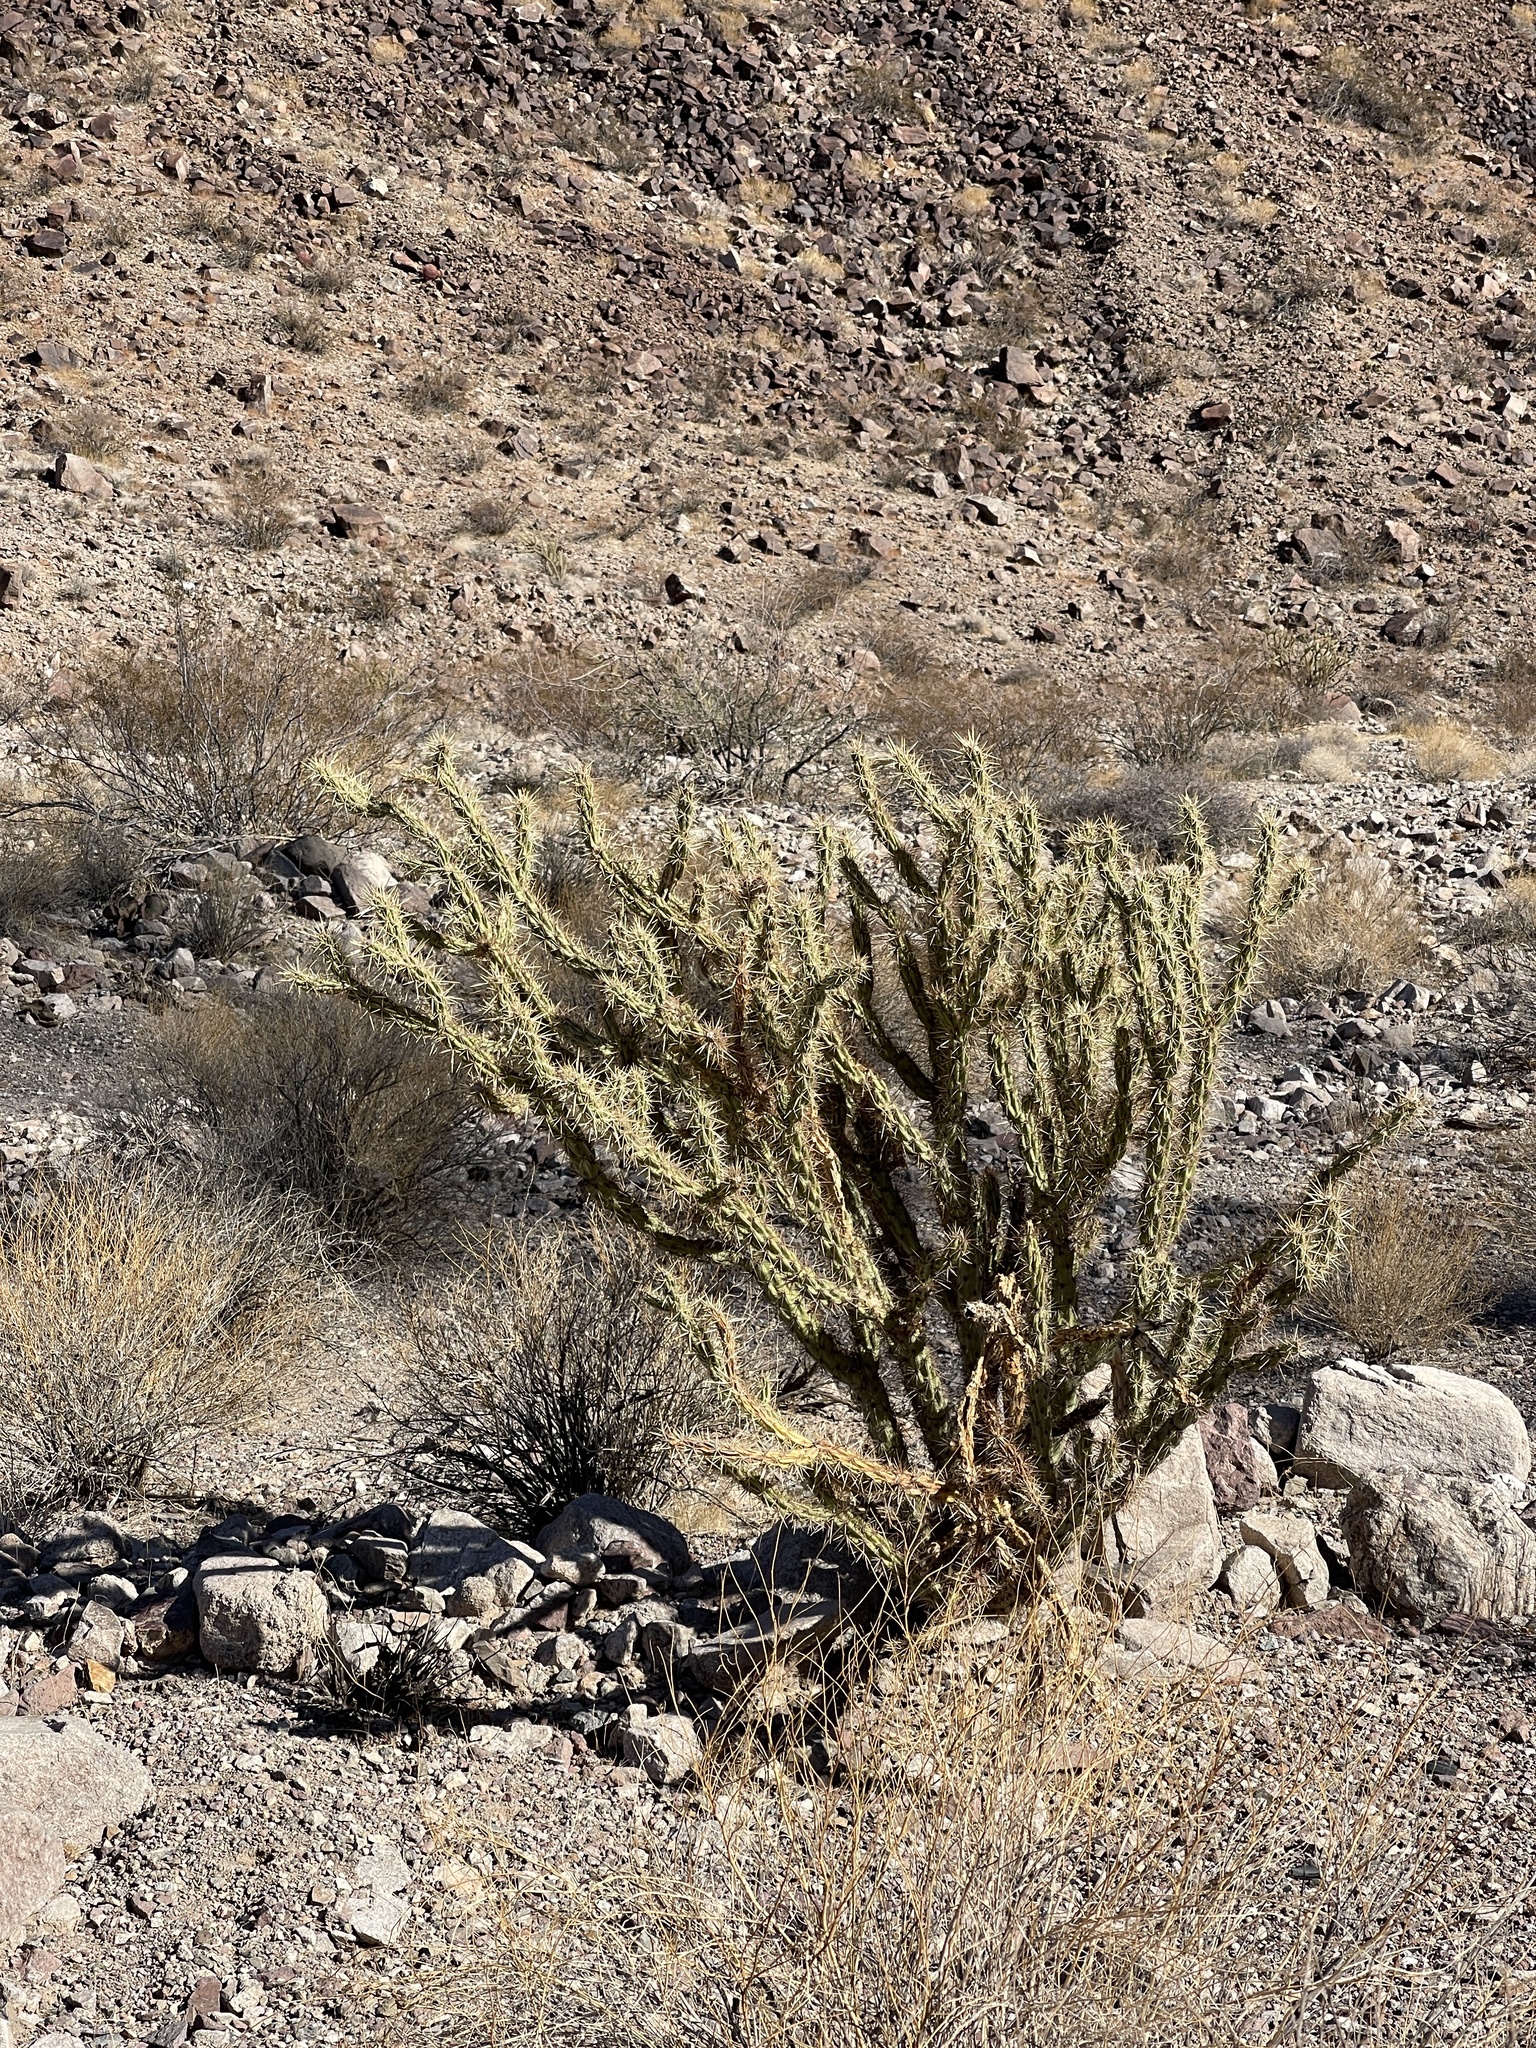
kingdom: Plantae
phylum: Tracheophyta
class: Magnoliopsida
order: Caryophyllales
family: Cactaceae
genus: Cylindropuntia
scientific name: Cylindropuntia acanthocarpa
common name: Buckhorn cholla
